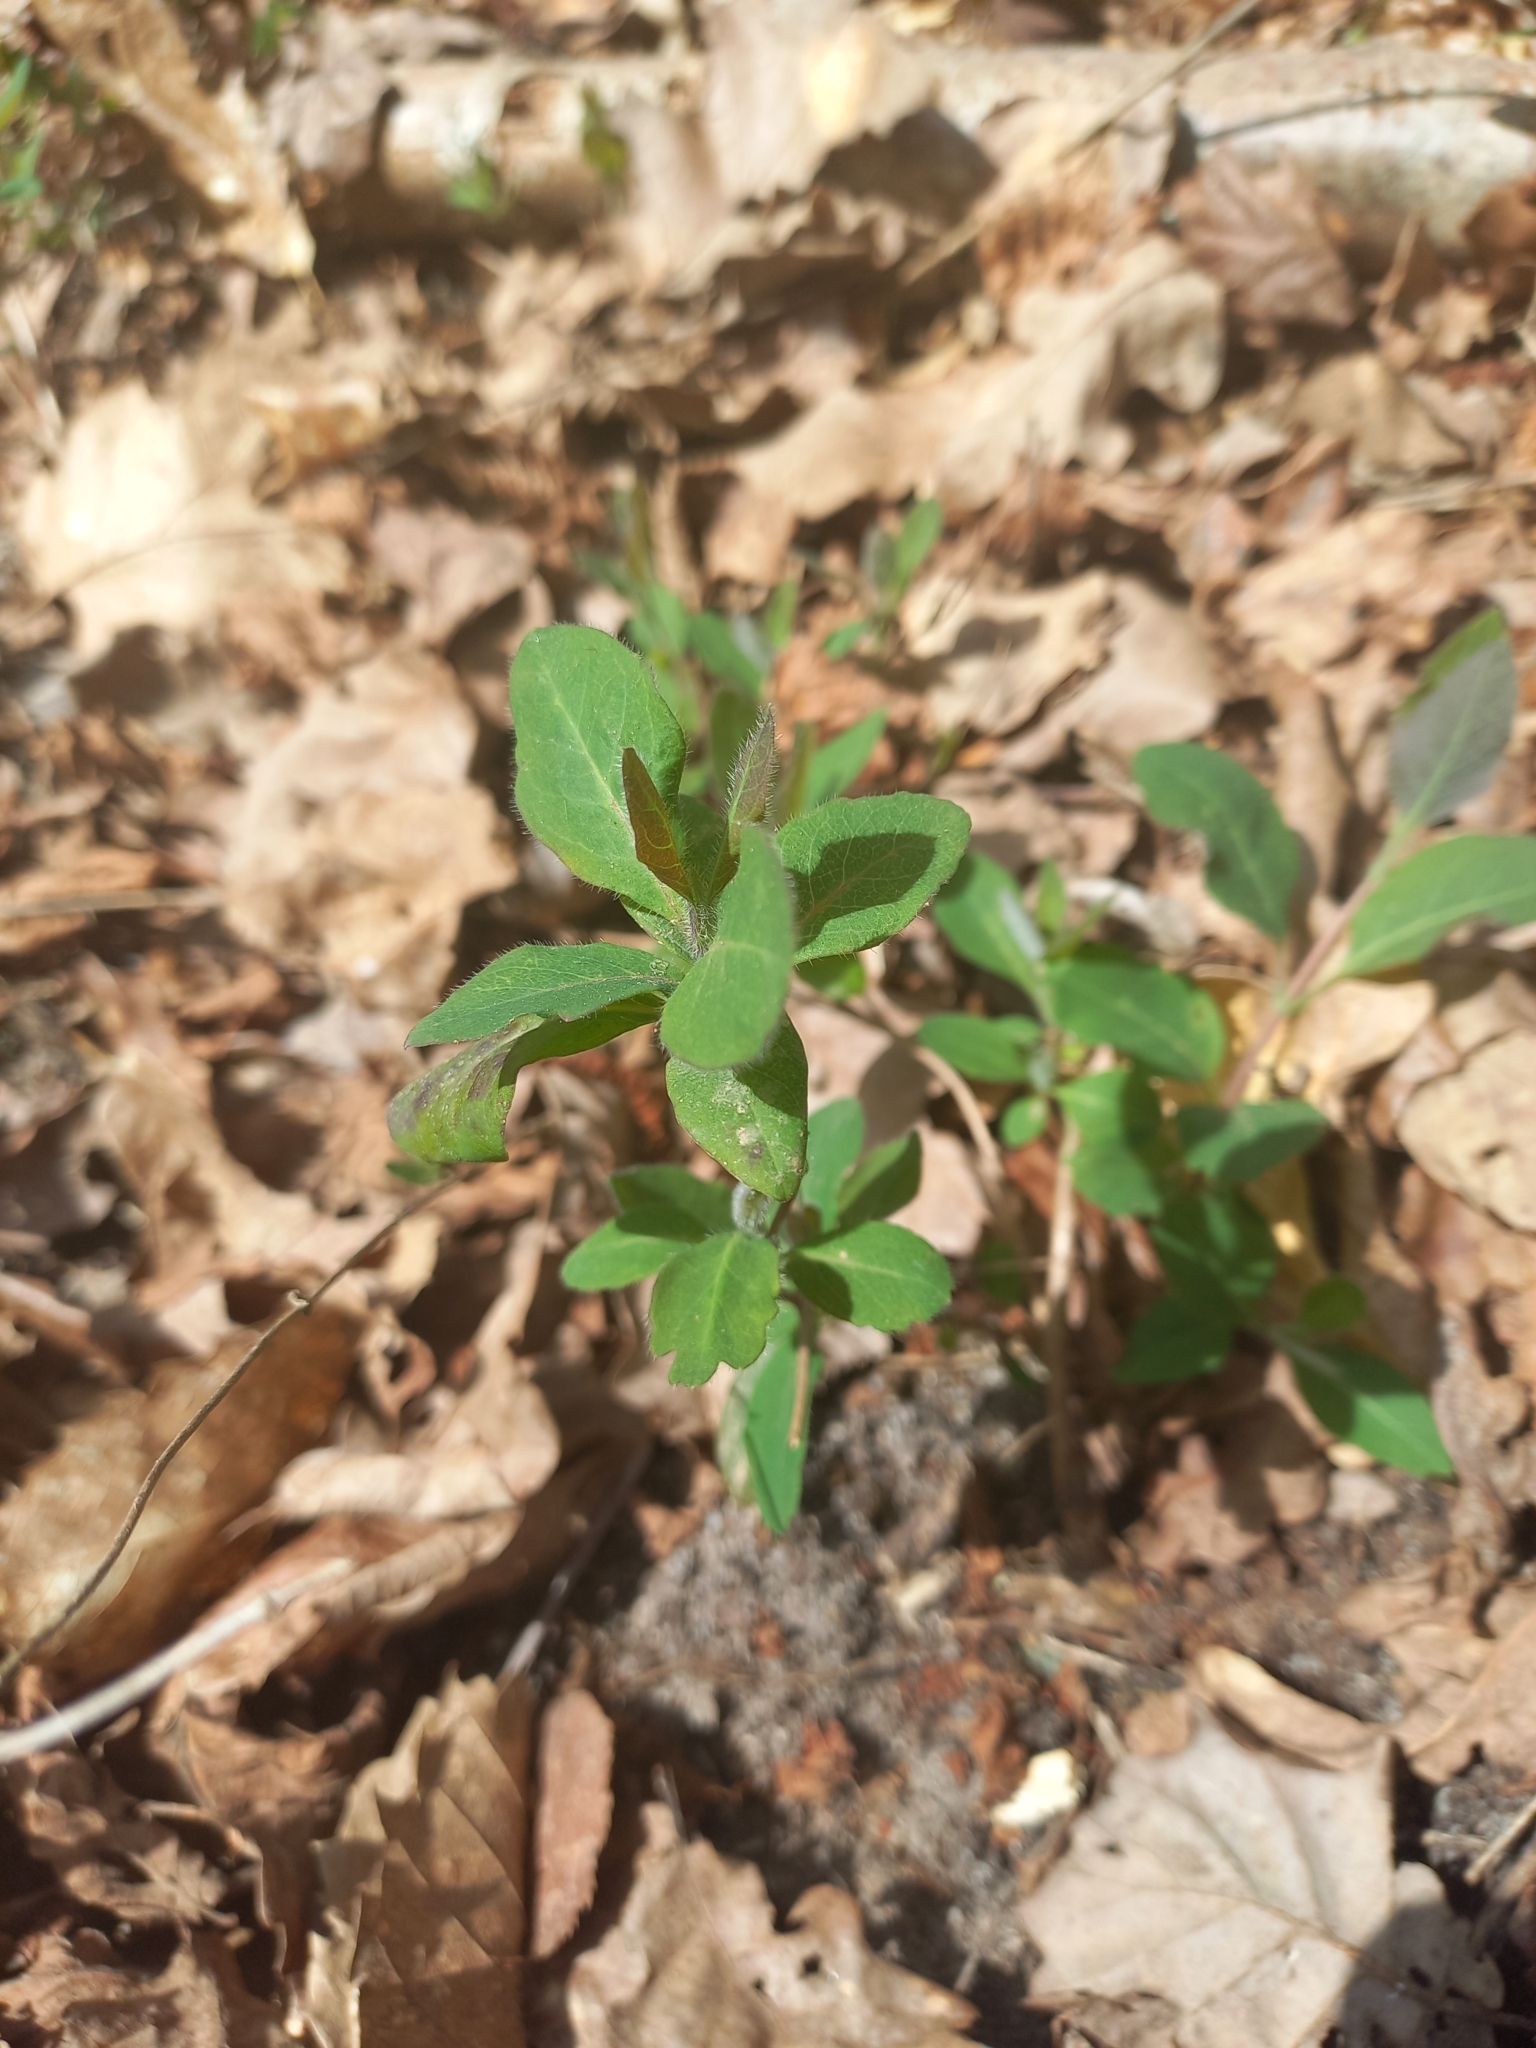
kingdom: Plantae
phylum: Tracheophyta
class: Magnoliopsida
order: Dipsacales
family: Caprifoliaceae
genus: Lonicera
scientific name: Lonicera periclymenum
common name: European honeysuckle
